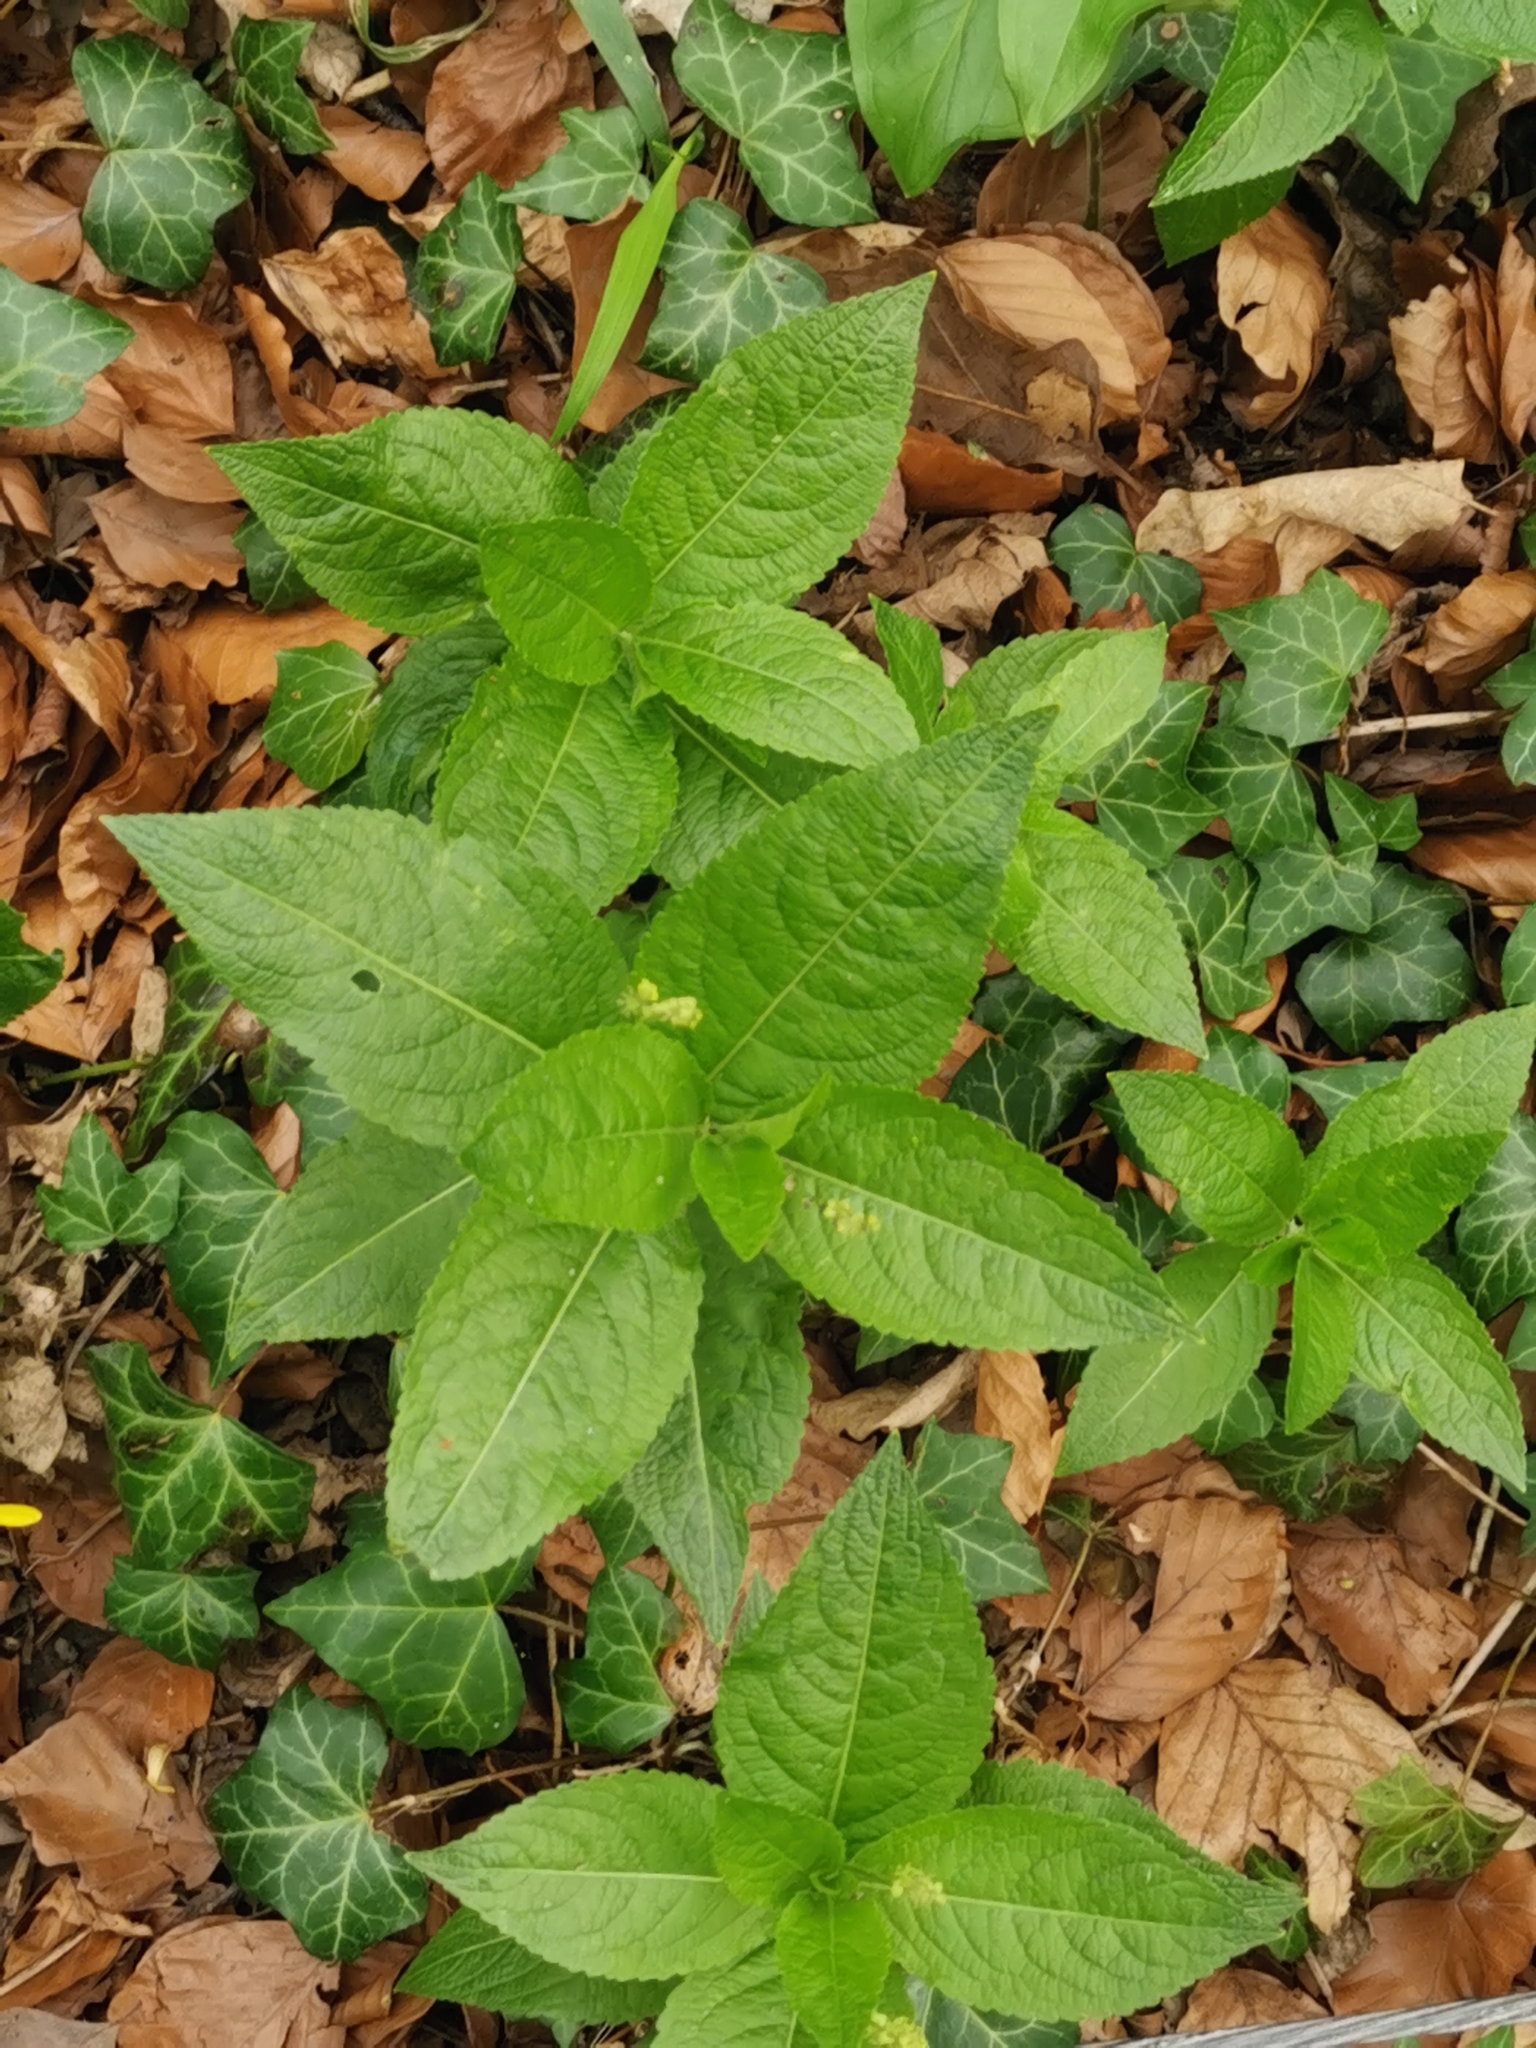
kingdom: Plantae
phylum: Tracheophyta
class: Magnoliopsida
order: Malpighiales
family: Euphorbiaceae
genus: Mercurialis
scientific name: Mercurialis perennis
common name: Dog mercury
